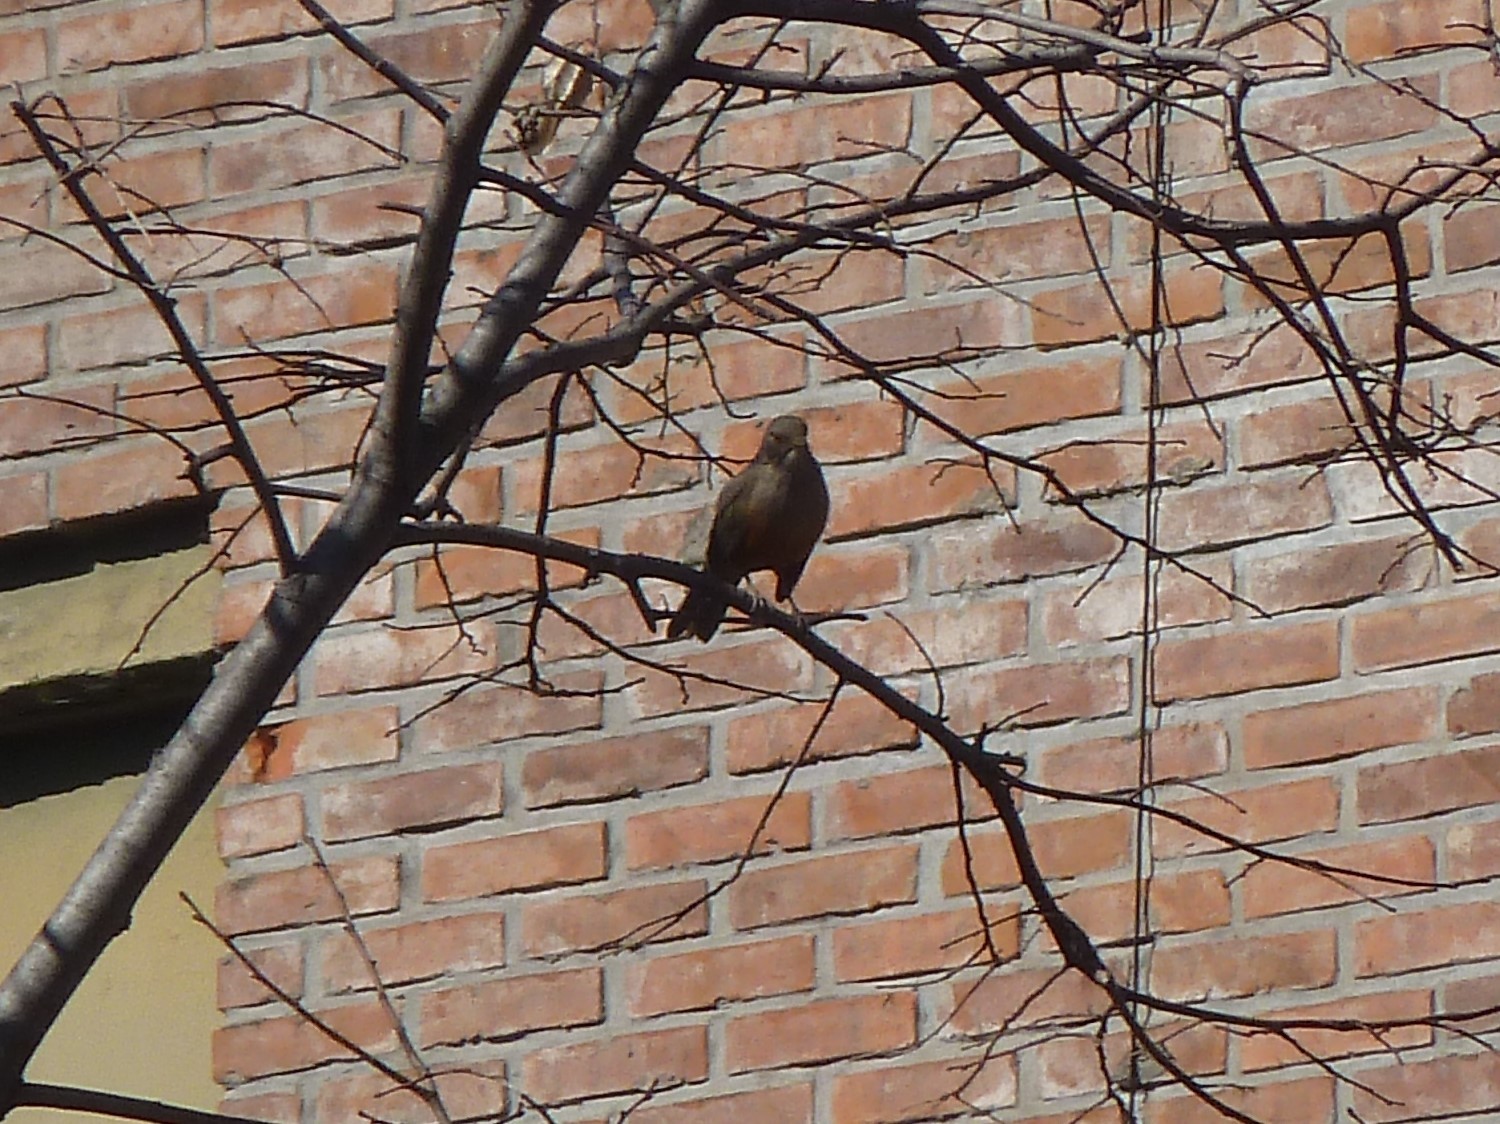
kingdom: Animalia
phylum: Chordata
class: Aves
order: Passeriformes
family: Turdidae
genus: Turdus
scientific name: Turdus rufiventris
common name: Rufous-bellied thrush
